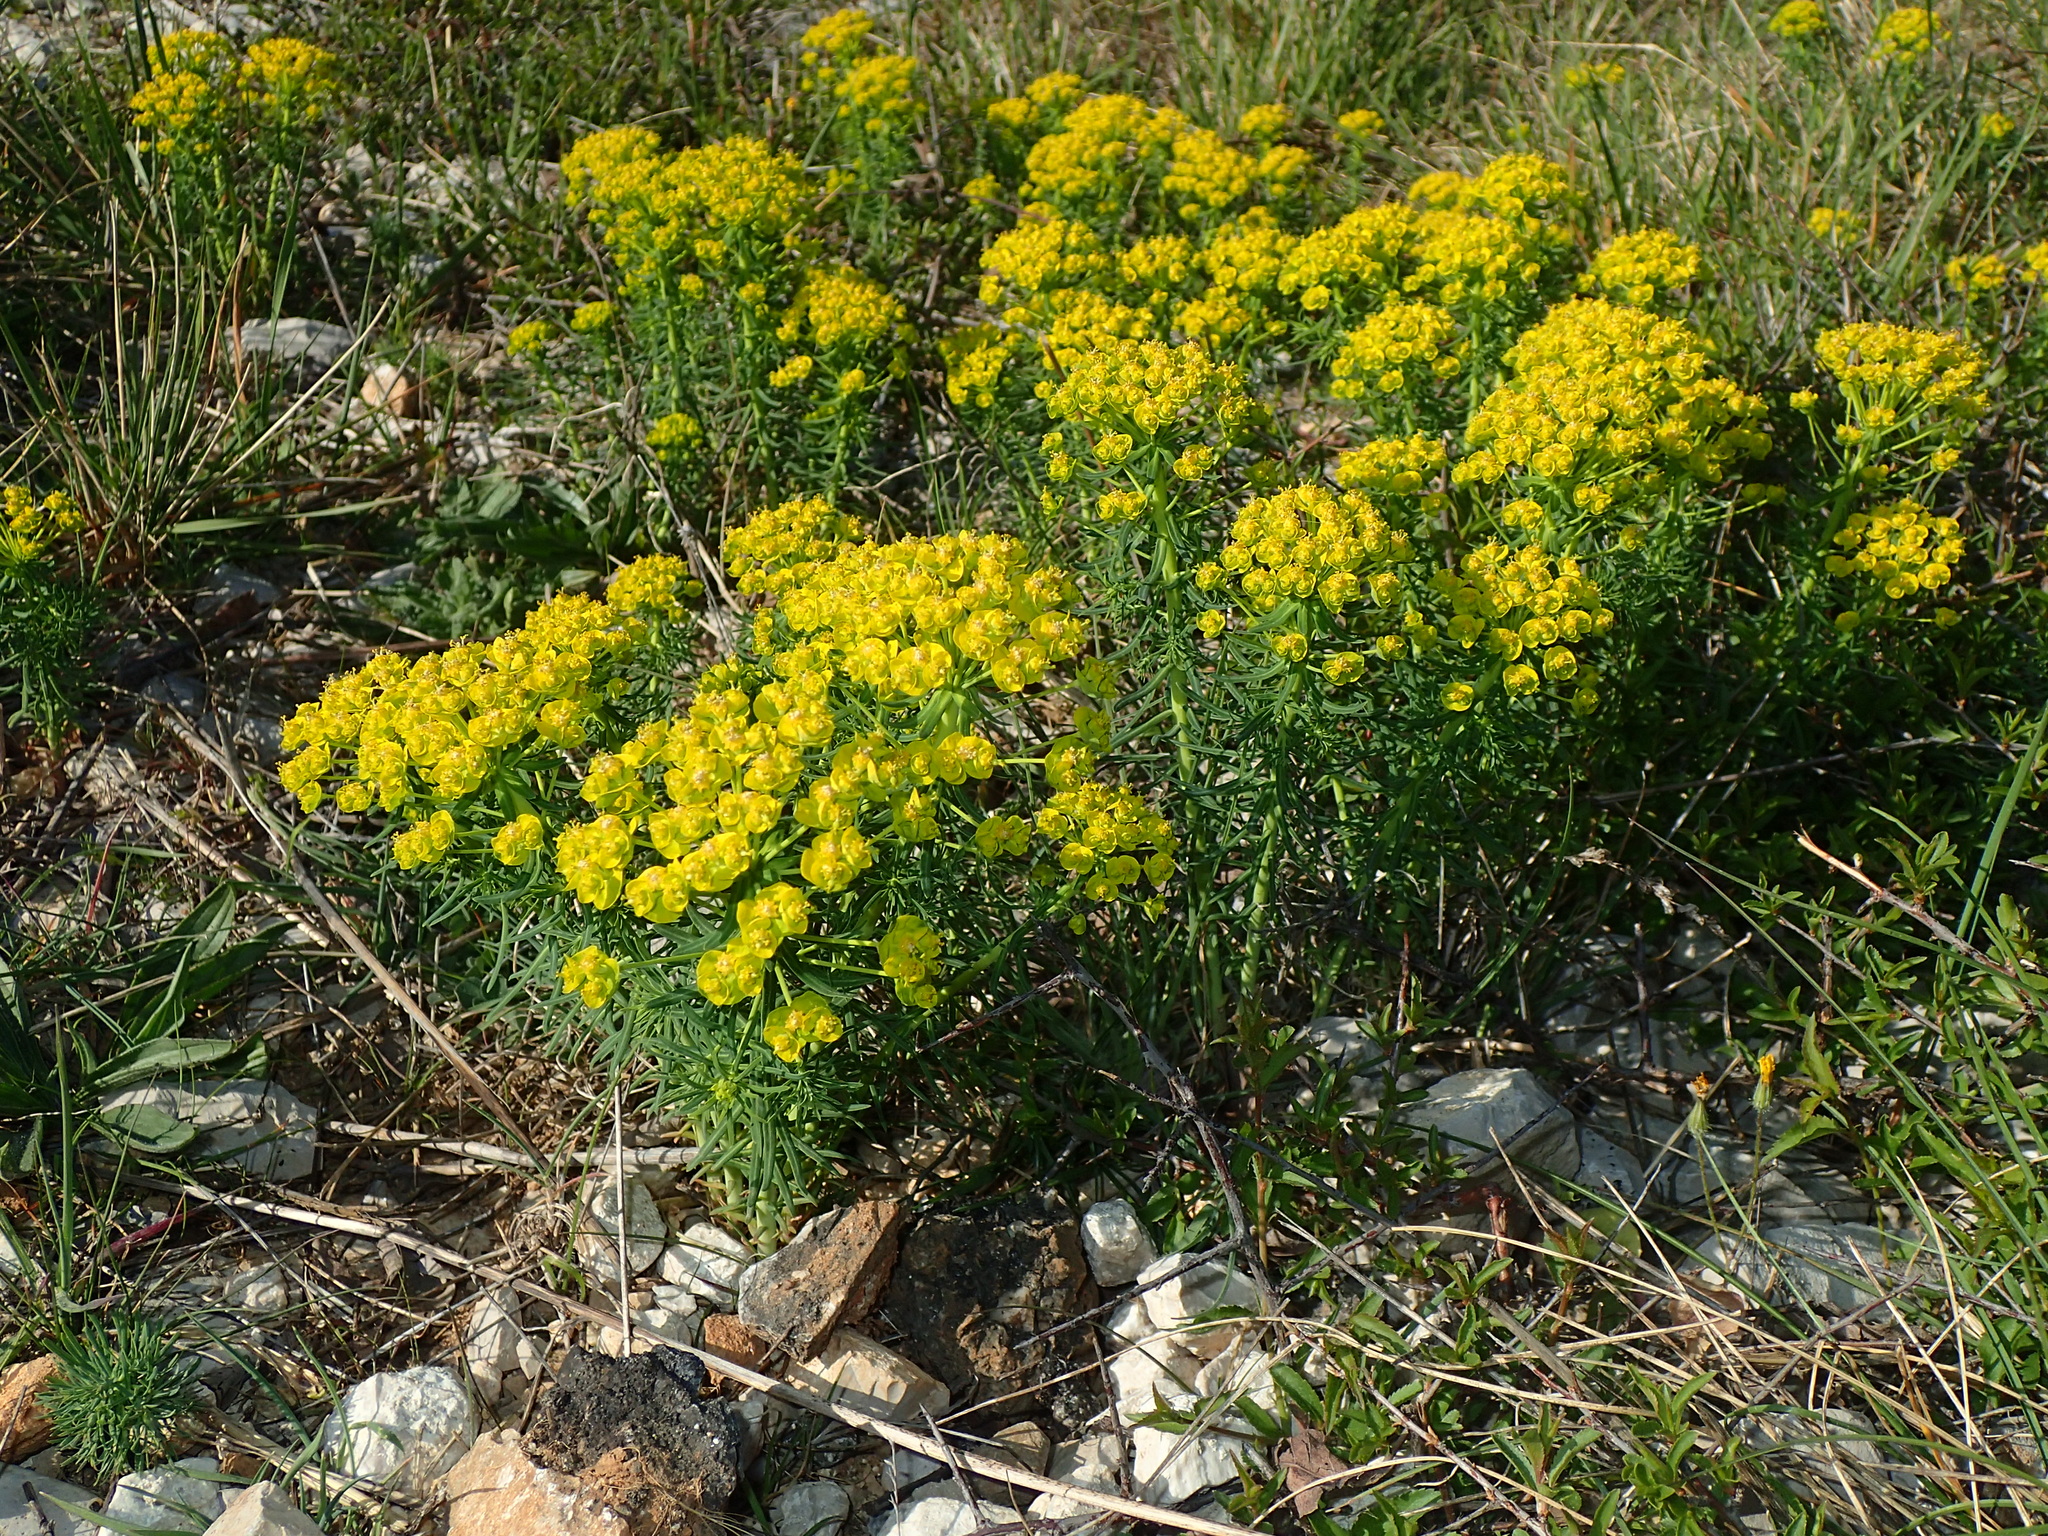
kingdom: Plantae
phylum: Tracheophyta
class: Magnoliopsida
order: Malpighiales
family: Euphorbiaceae
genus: Euphorbia
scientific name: Euphorbia cyparissias
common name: Cypress spurge
